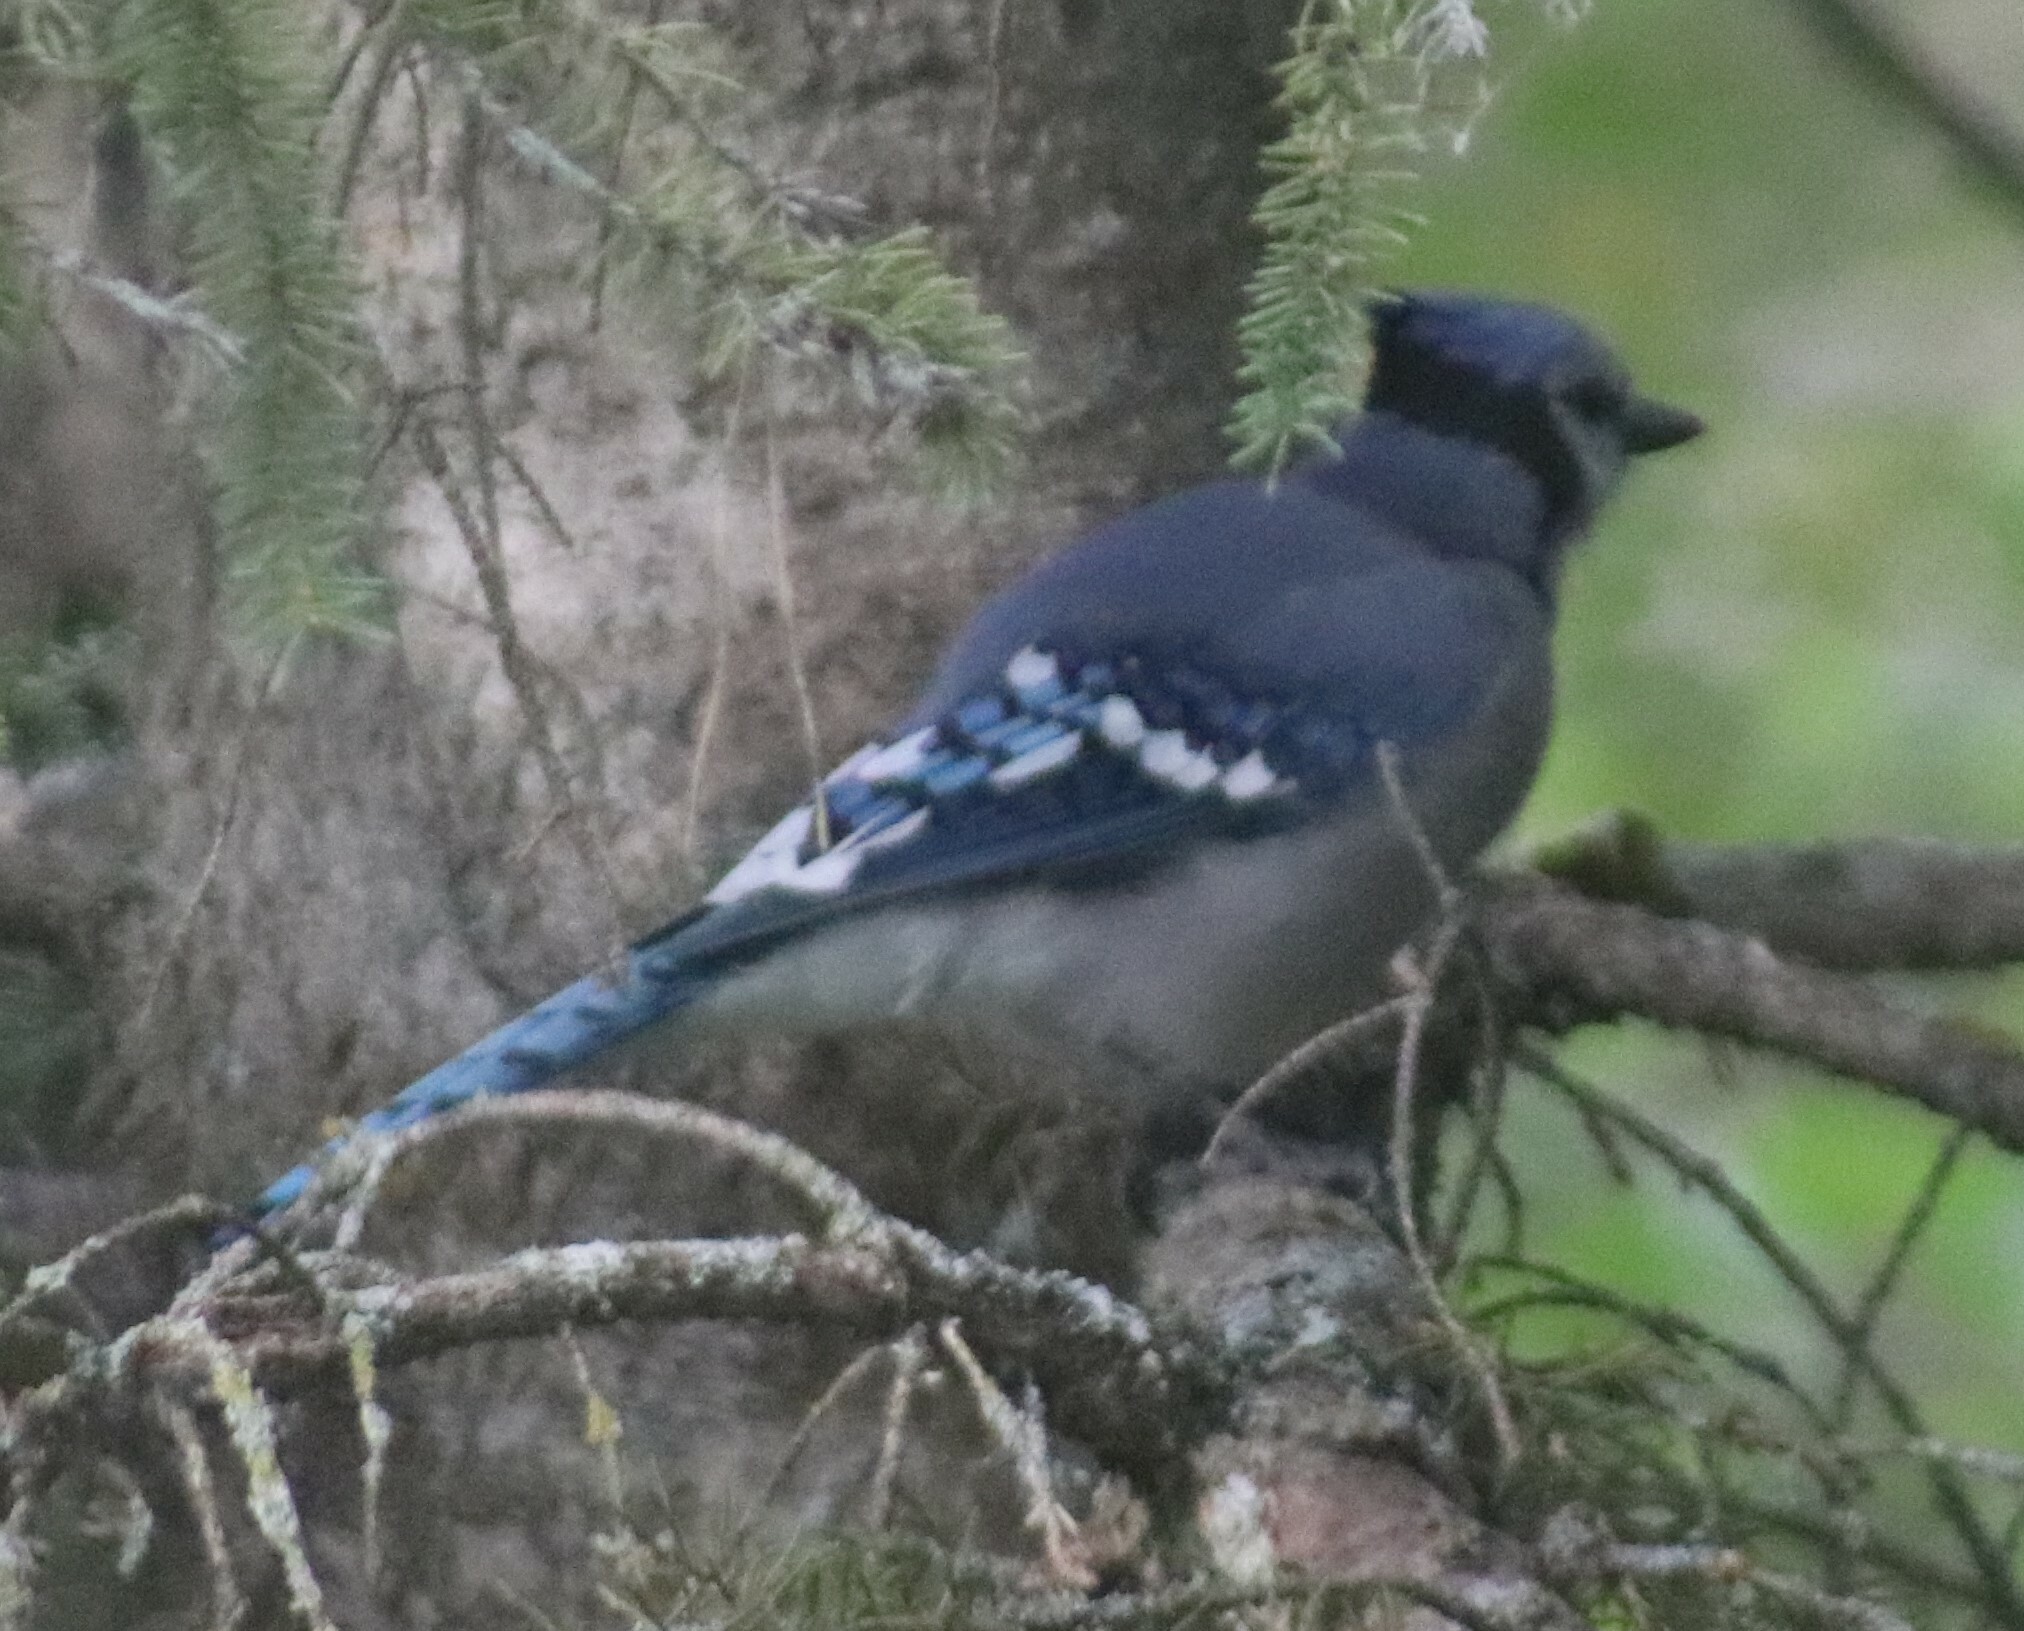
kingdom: Animalia
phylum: Chordata
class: Aves
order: Passeriformes
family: Corvidae
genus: Cyanocitta
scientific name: Cyanocitta cristata
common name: Blue jay
